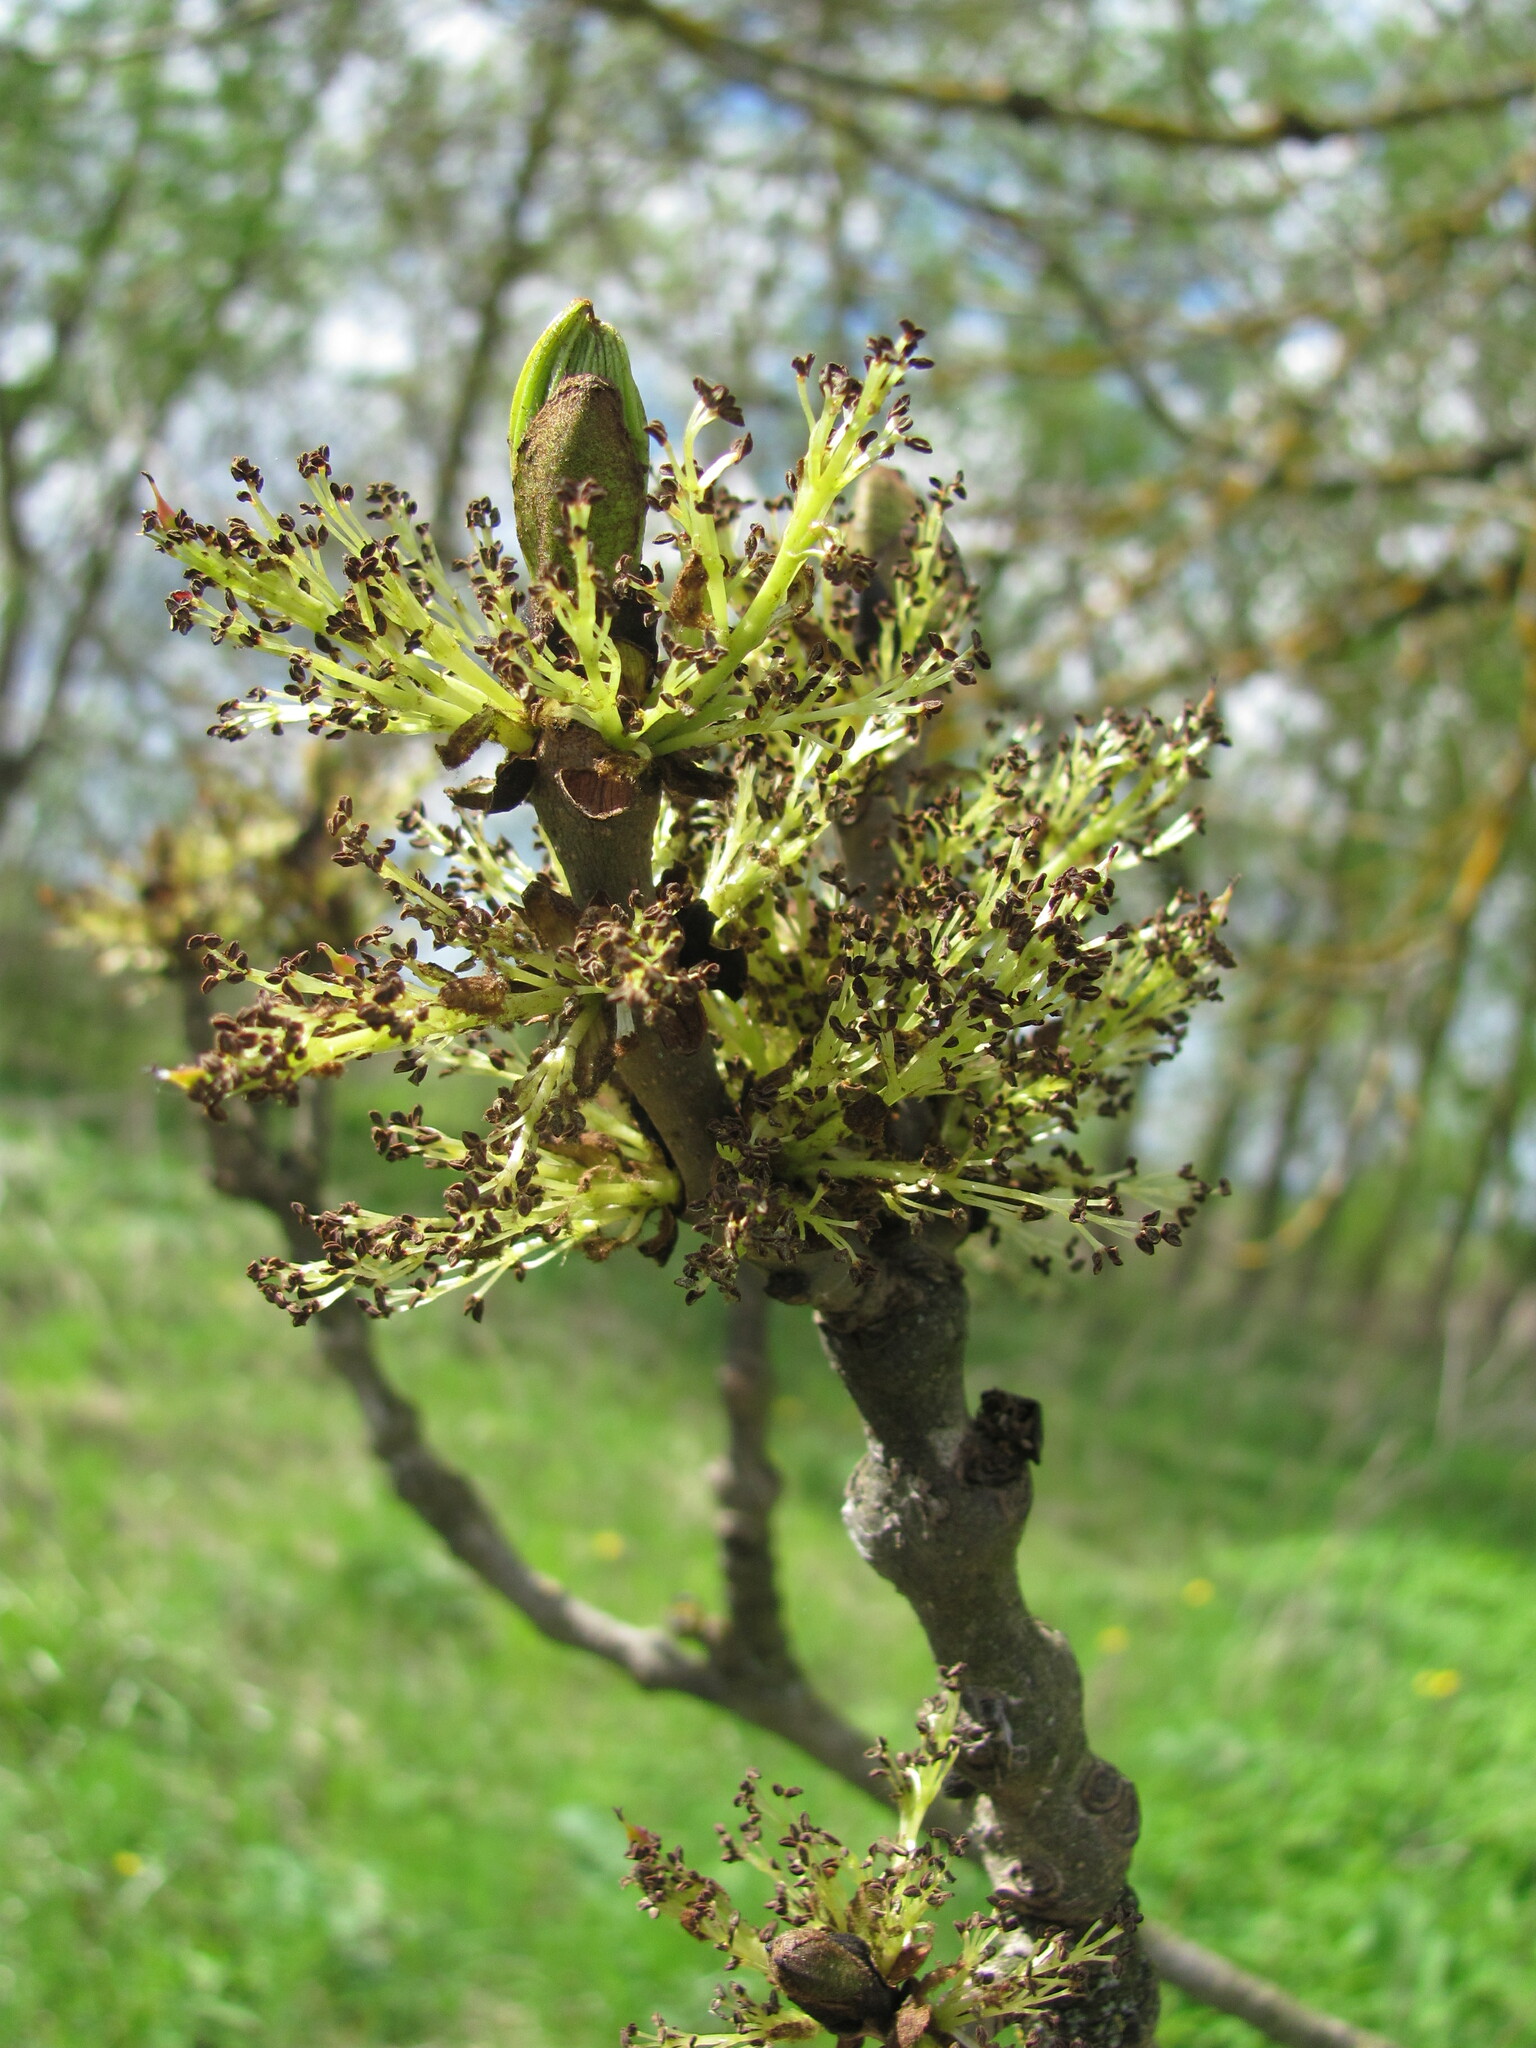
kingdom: Plantae
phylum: Tracheophyta
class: Magnoliopsida
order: Lamiales
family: Oleaceae
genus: Fraxinus
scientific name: Fraxinus excelsior
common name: European ash
